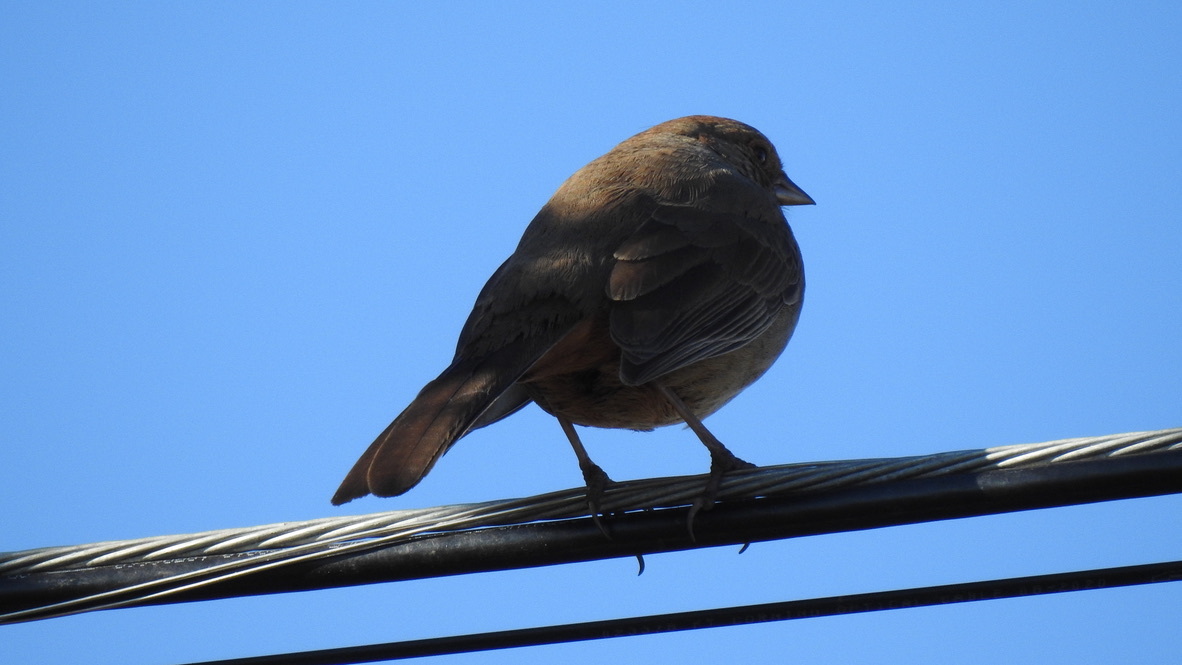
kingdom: Animalia
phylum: Chordata
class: Aves
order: Passeriformes
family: Passerellidae
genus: Melozone
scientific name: Melozone crissalis
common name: California towhee
